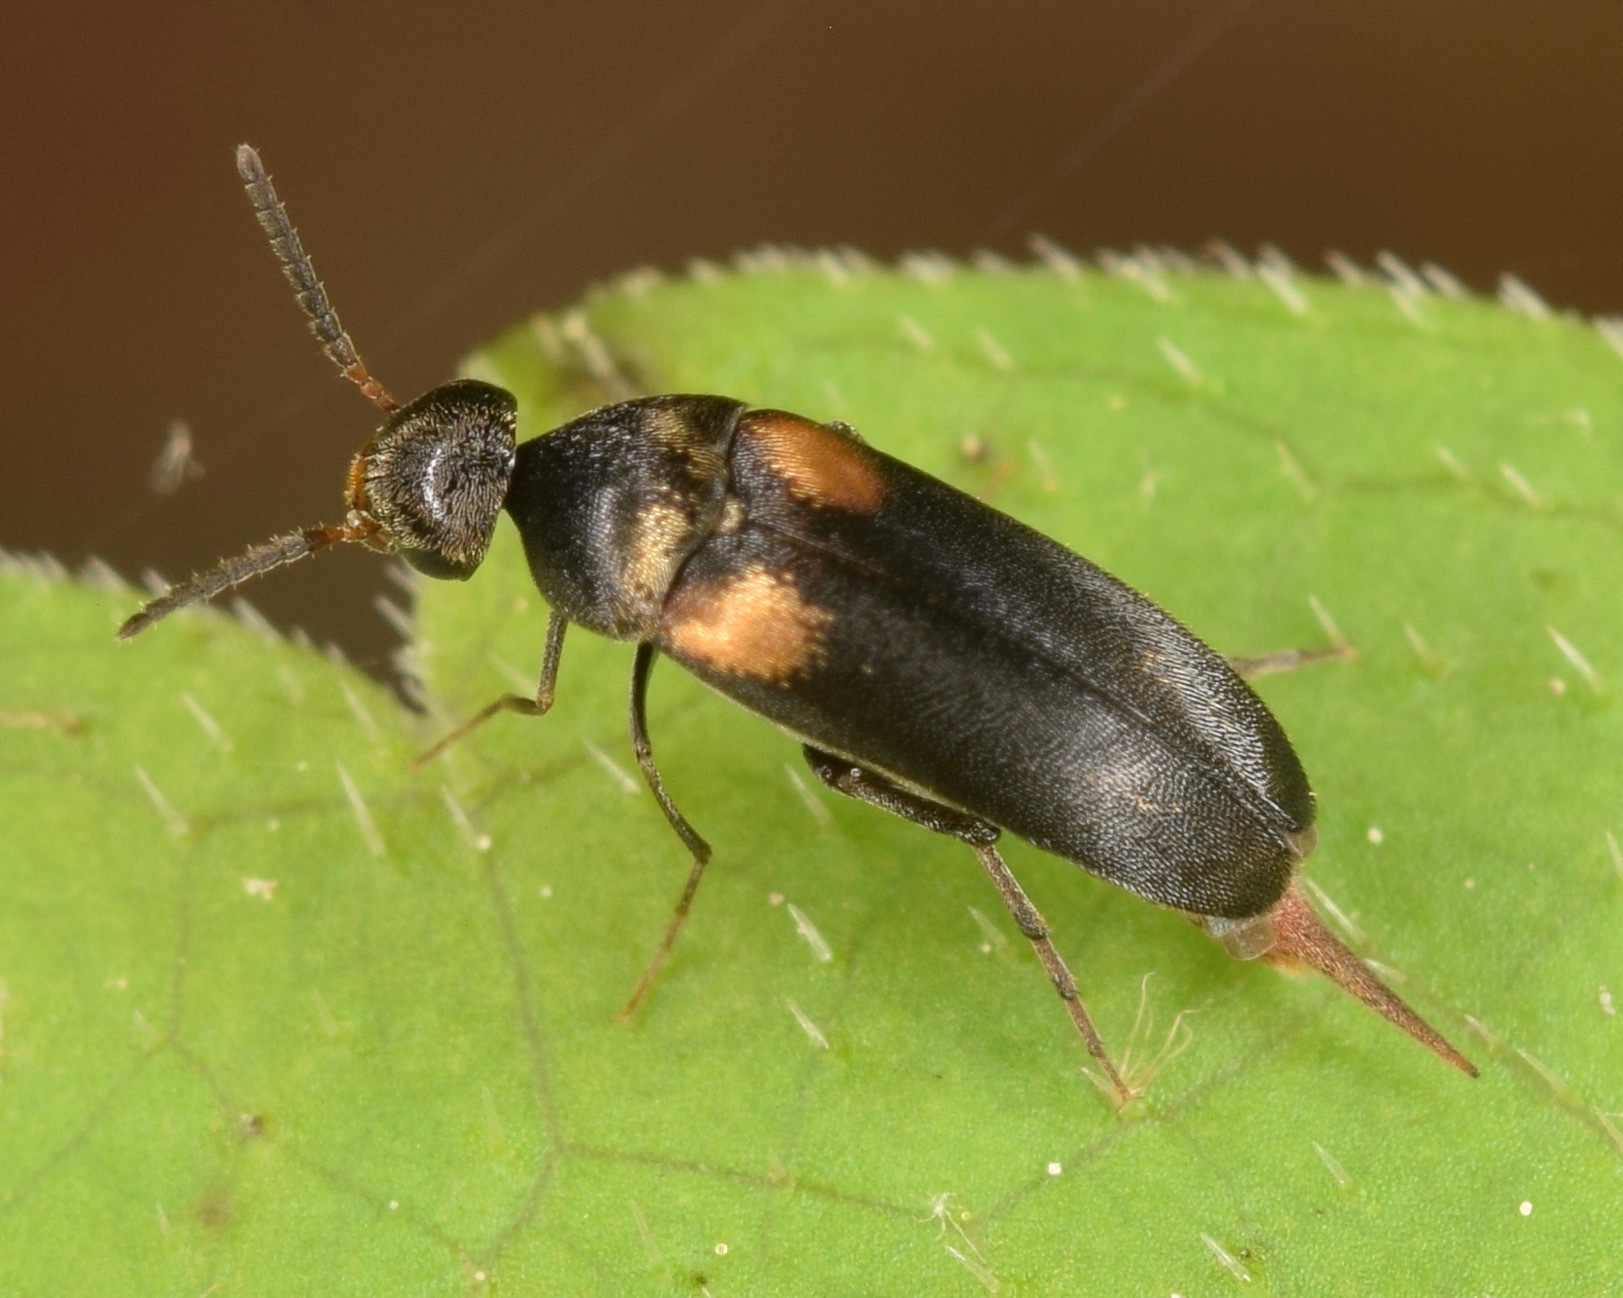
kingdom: Animalia
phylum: Arthropoda
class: Insecta
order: Coleoptera
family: Mordellidae
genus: Mordellochroa
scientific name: Mordellochroa scapularis
